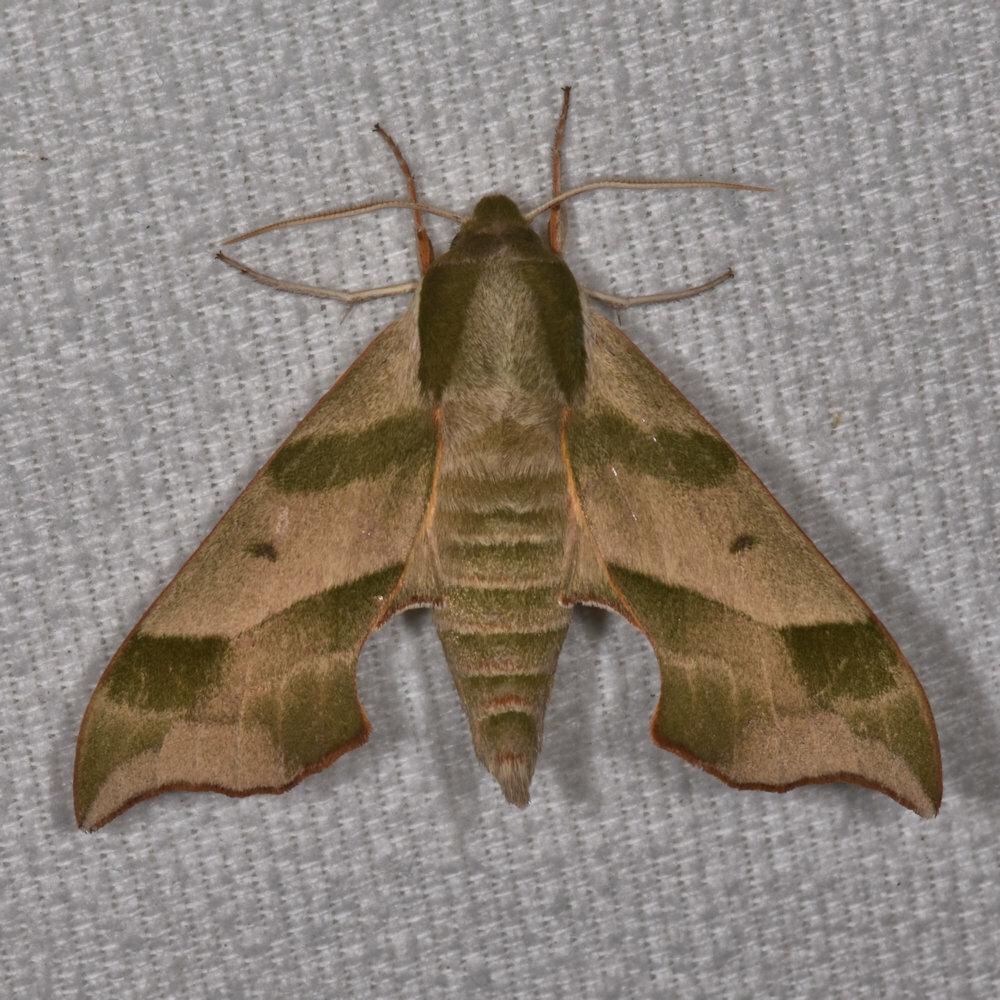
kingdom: Animalia
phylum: Arthropoda
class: Insecta
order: Lepidoptera
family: Sphingidae
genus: Darapsa
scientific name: Darapsa myron
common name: Hog sphinx
